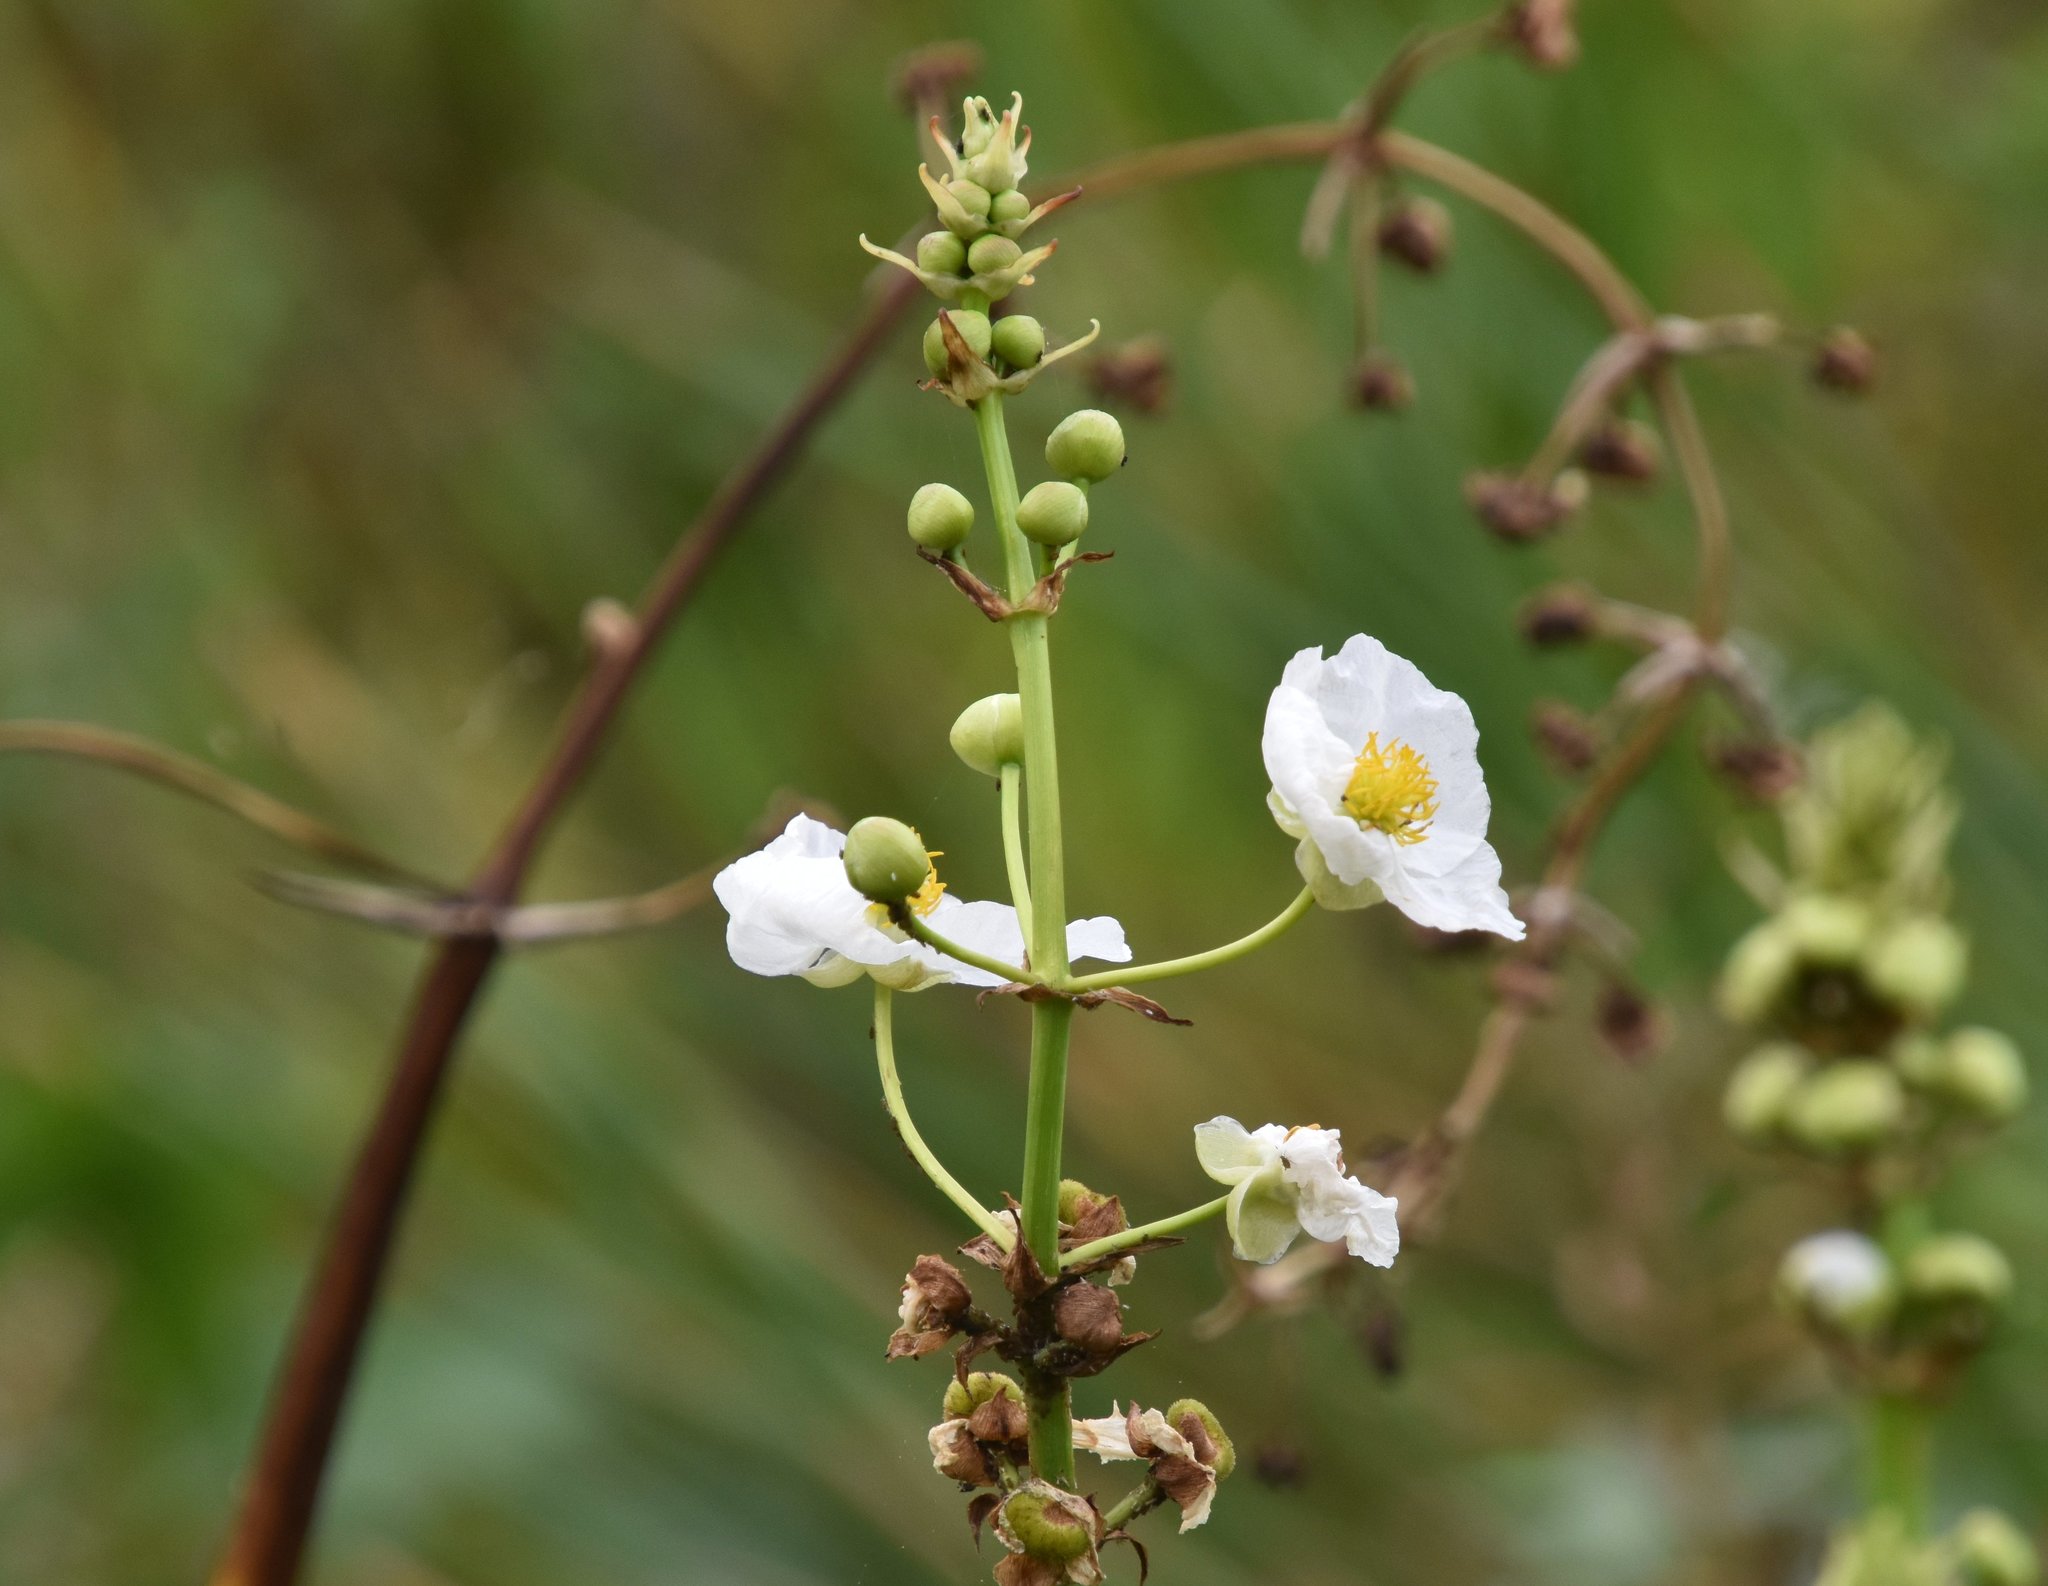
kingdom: Plantae
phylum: Tracheophyta
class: Liliopsida
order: Alismatales
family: Alismataceae
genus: Sagittaria
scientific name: Sagittaria lancifolia
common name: Lance-leaf arrowhead
